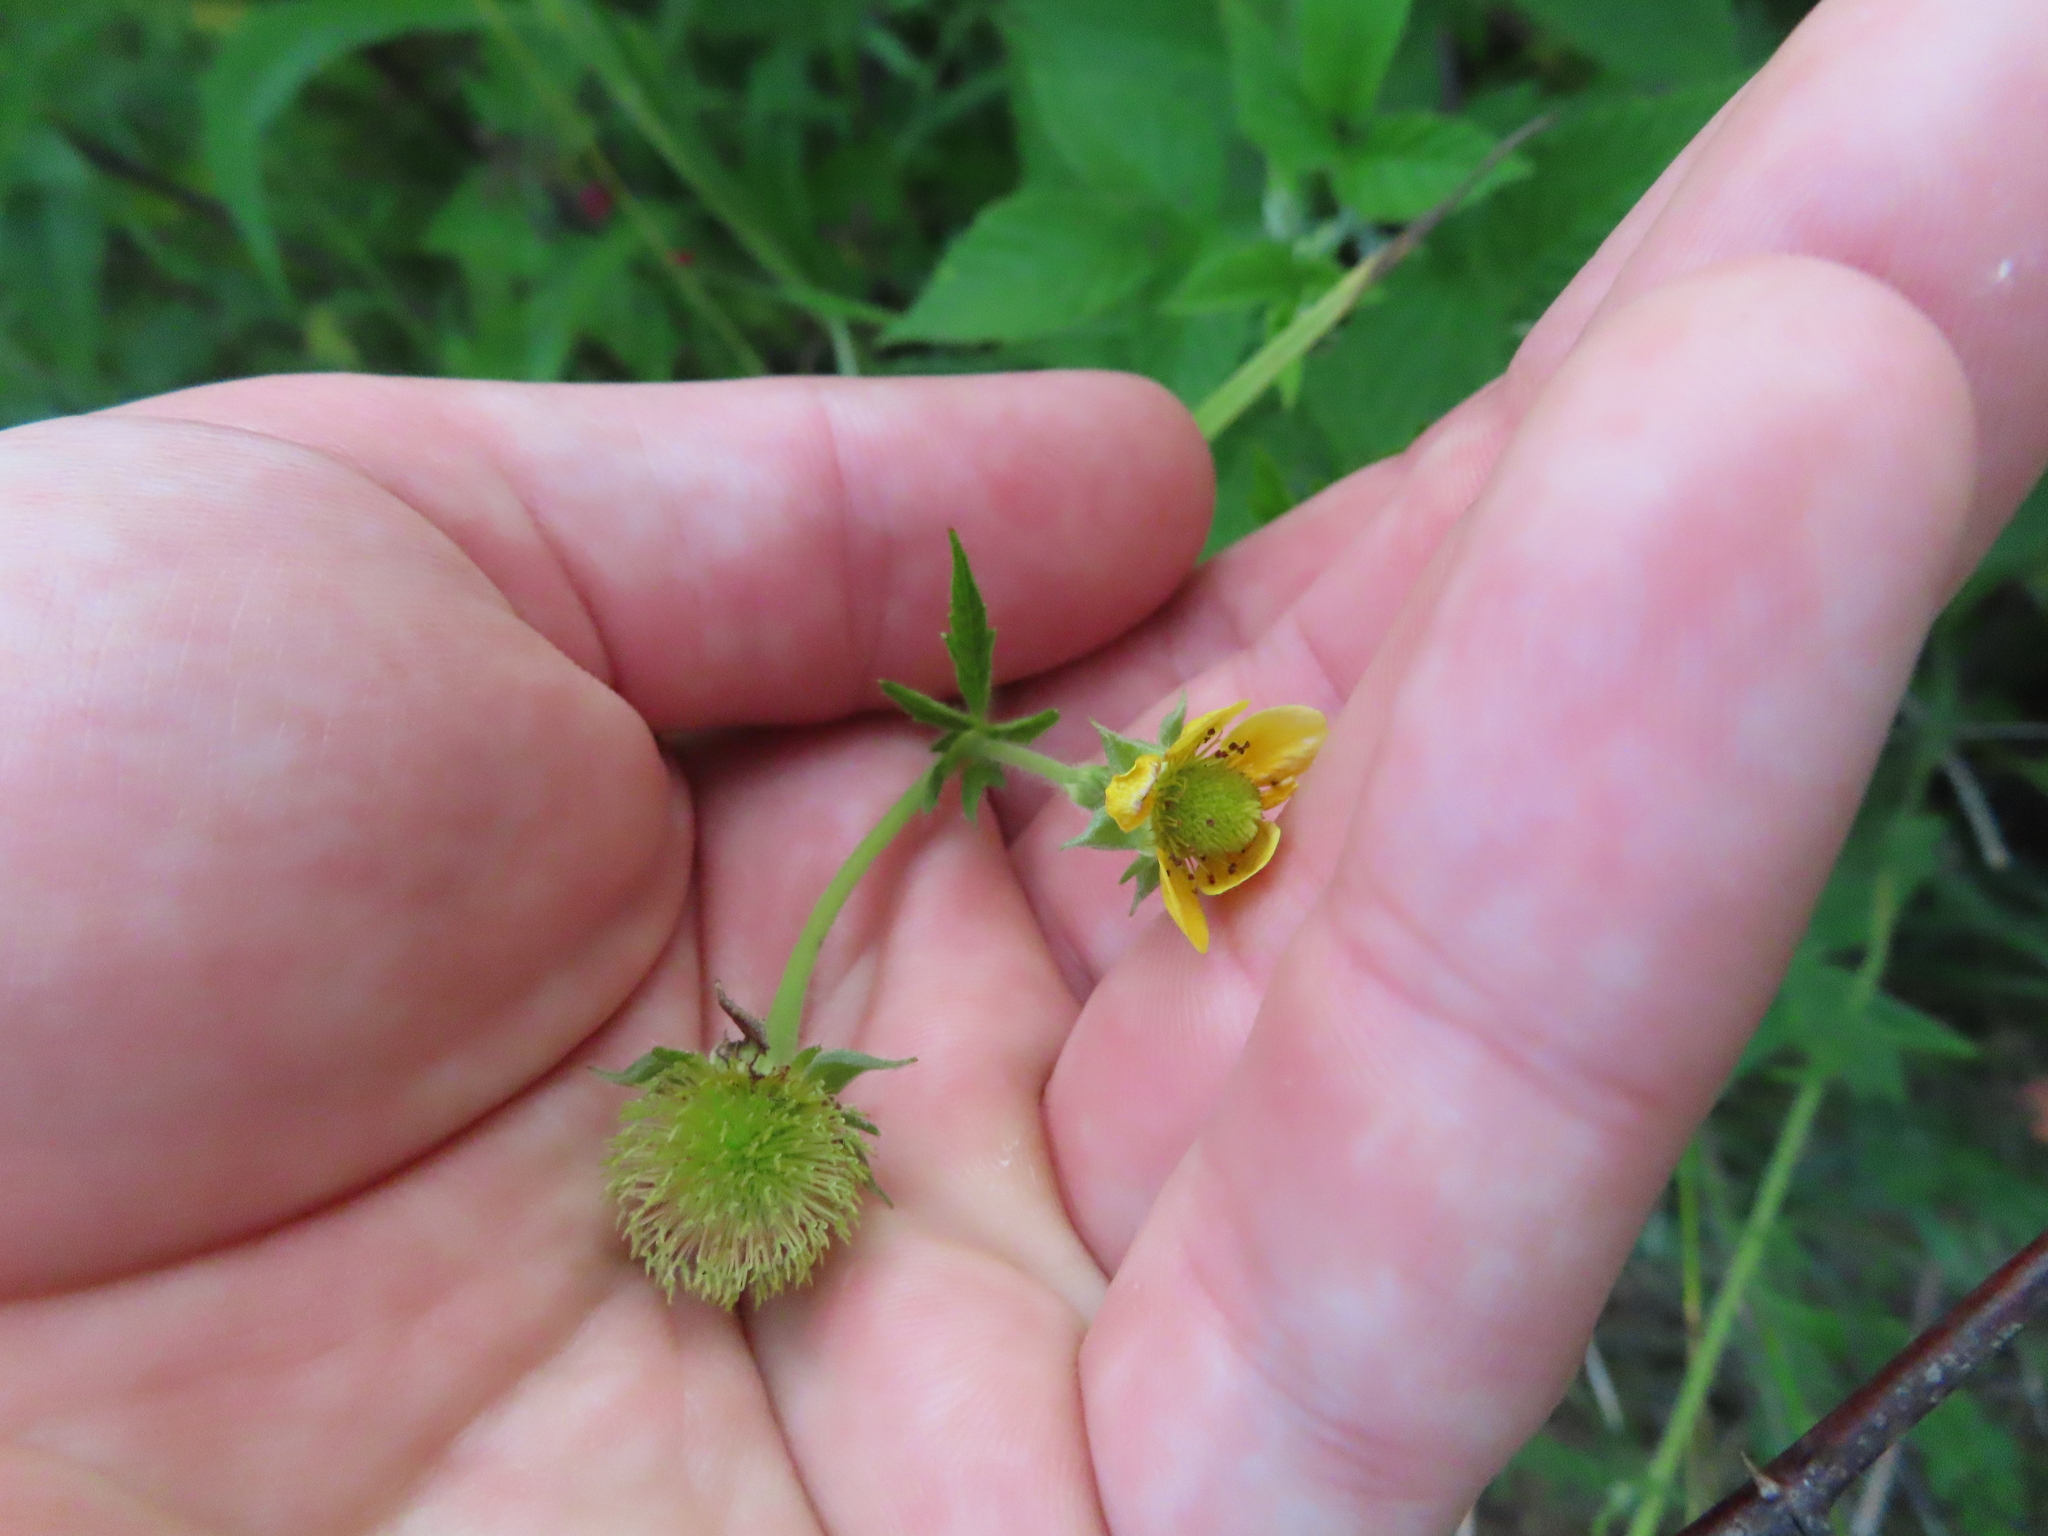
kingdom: Plantae
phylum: Tracheophyta
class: Magnoliopsida
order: Rosales
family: Rosaceae
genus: Geum
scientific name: Geum aleppicum
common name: Yellow avens
